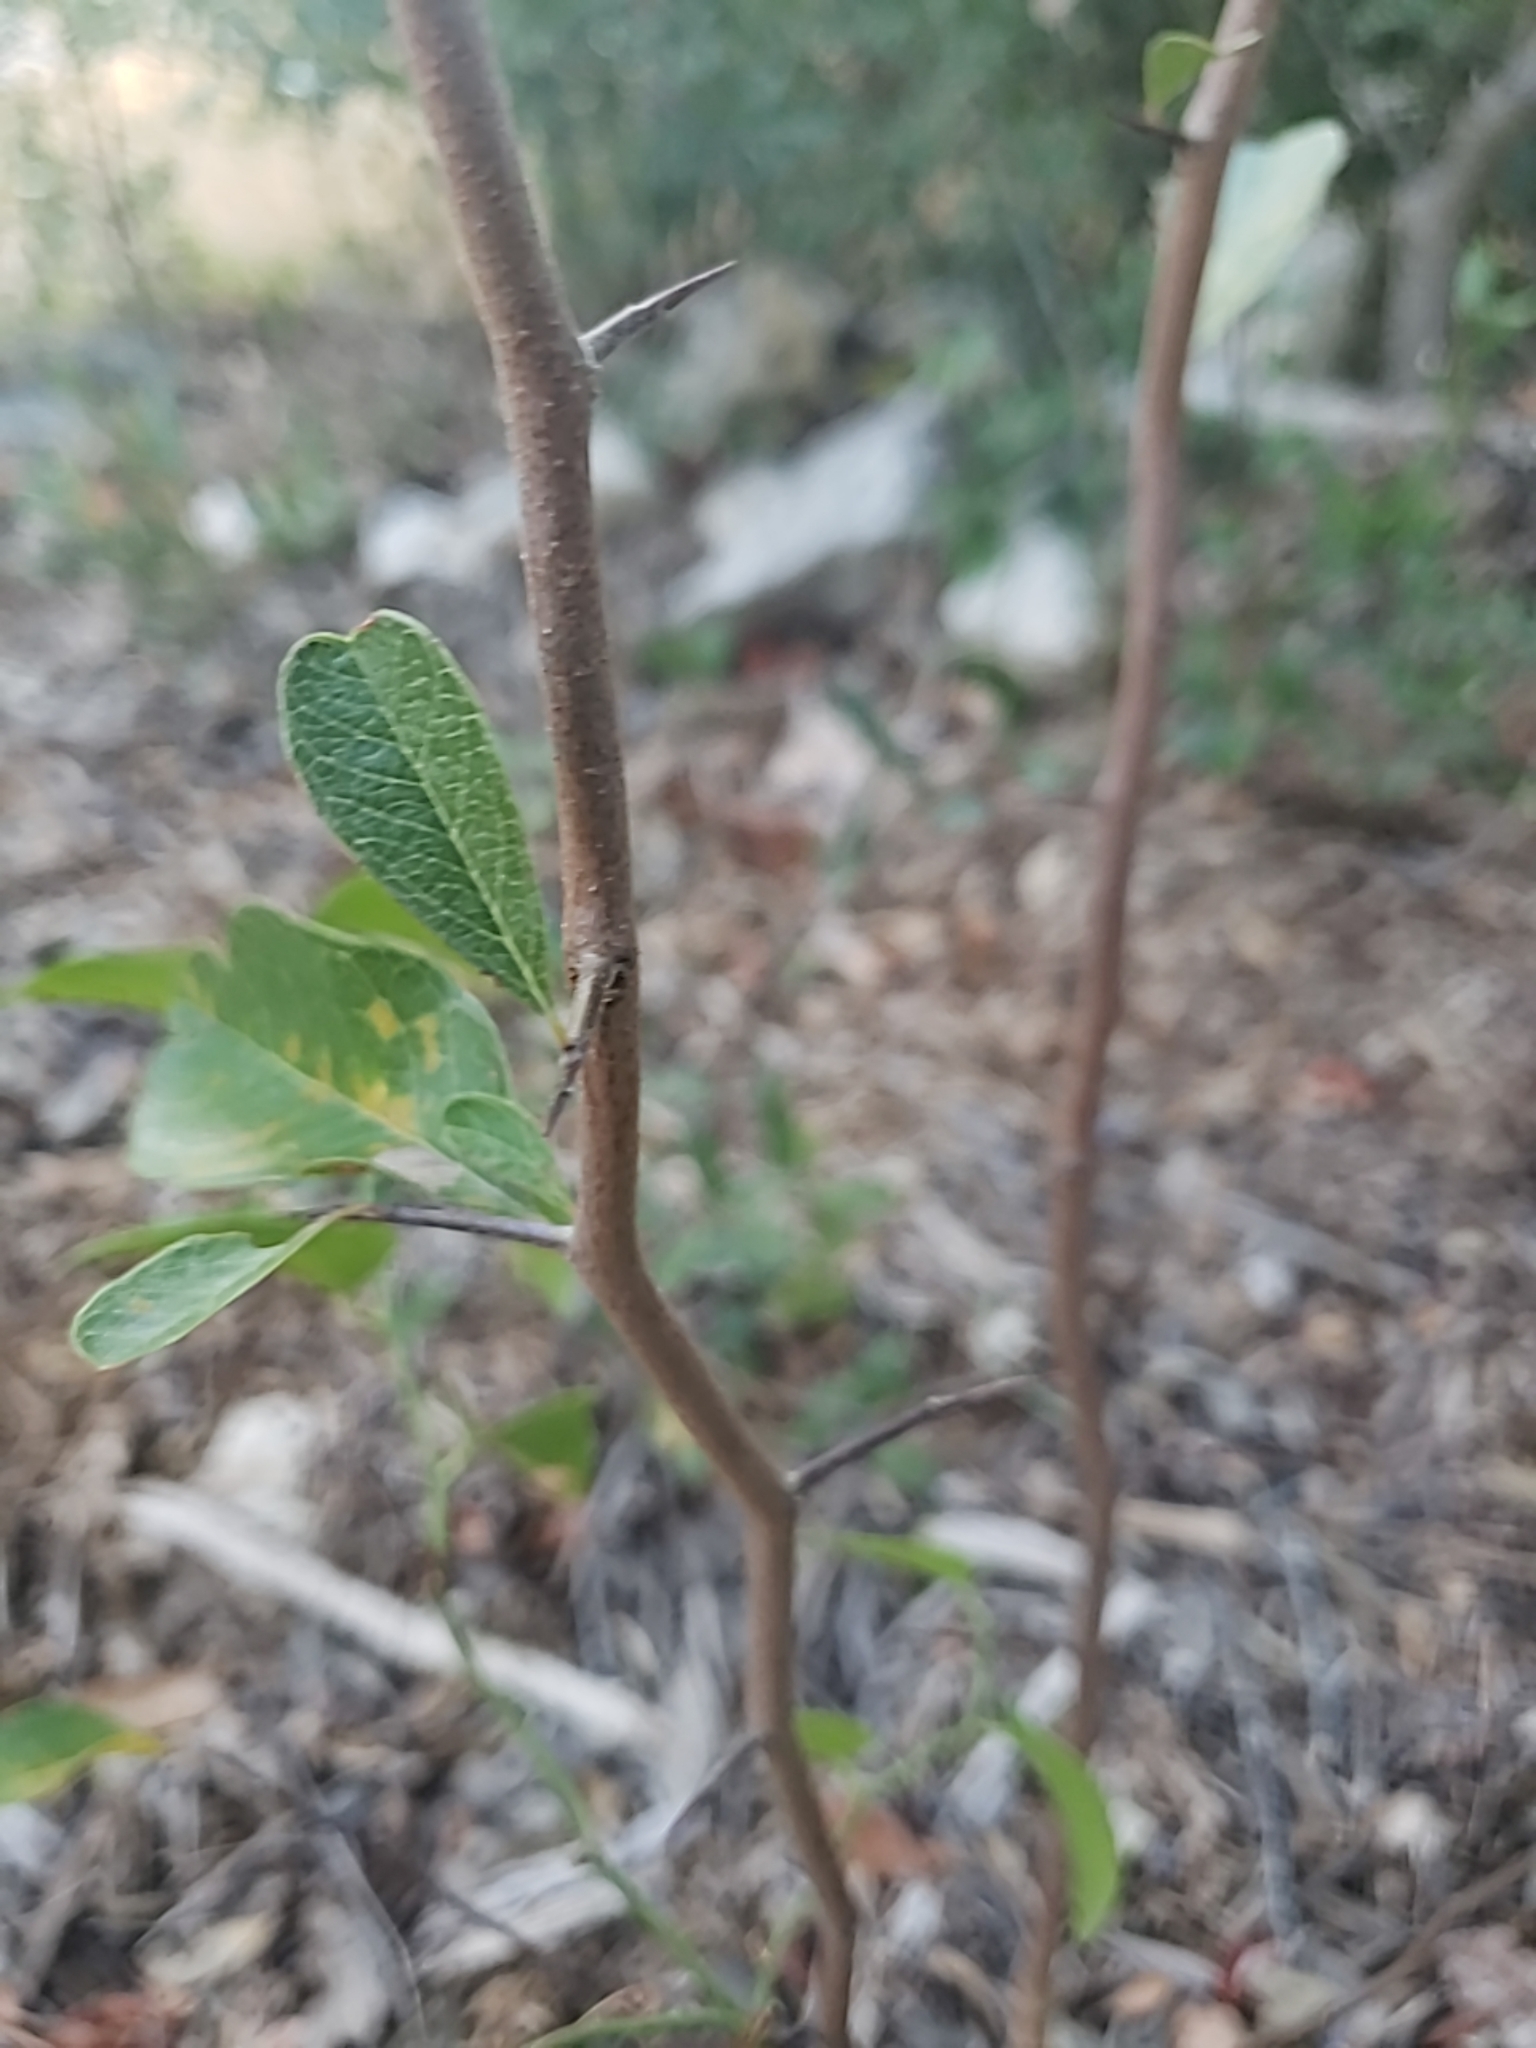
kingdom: Plantae
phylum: Tracheophyta
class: Magnoliopsida
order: Ericales
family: Sapotaceae
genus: Sideroxylon
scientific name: Sideroxylon lanuginosum
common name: Chittamwood
